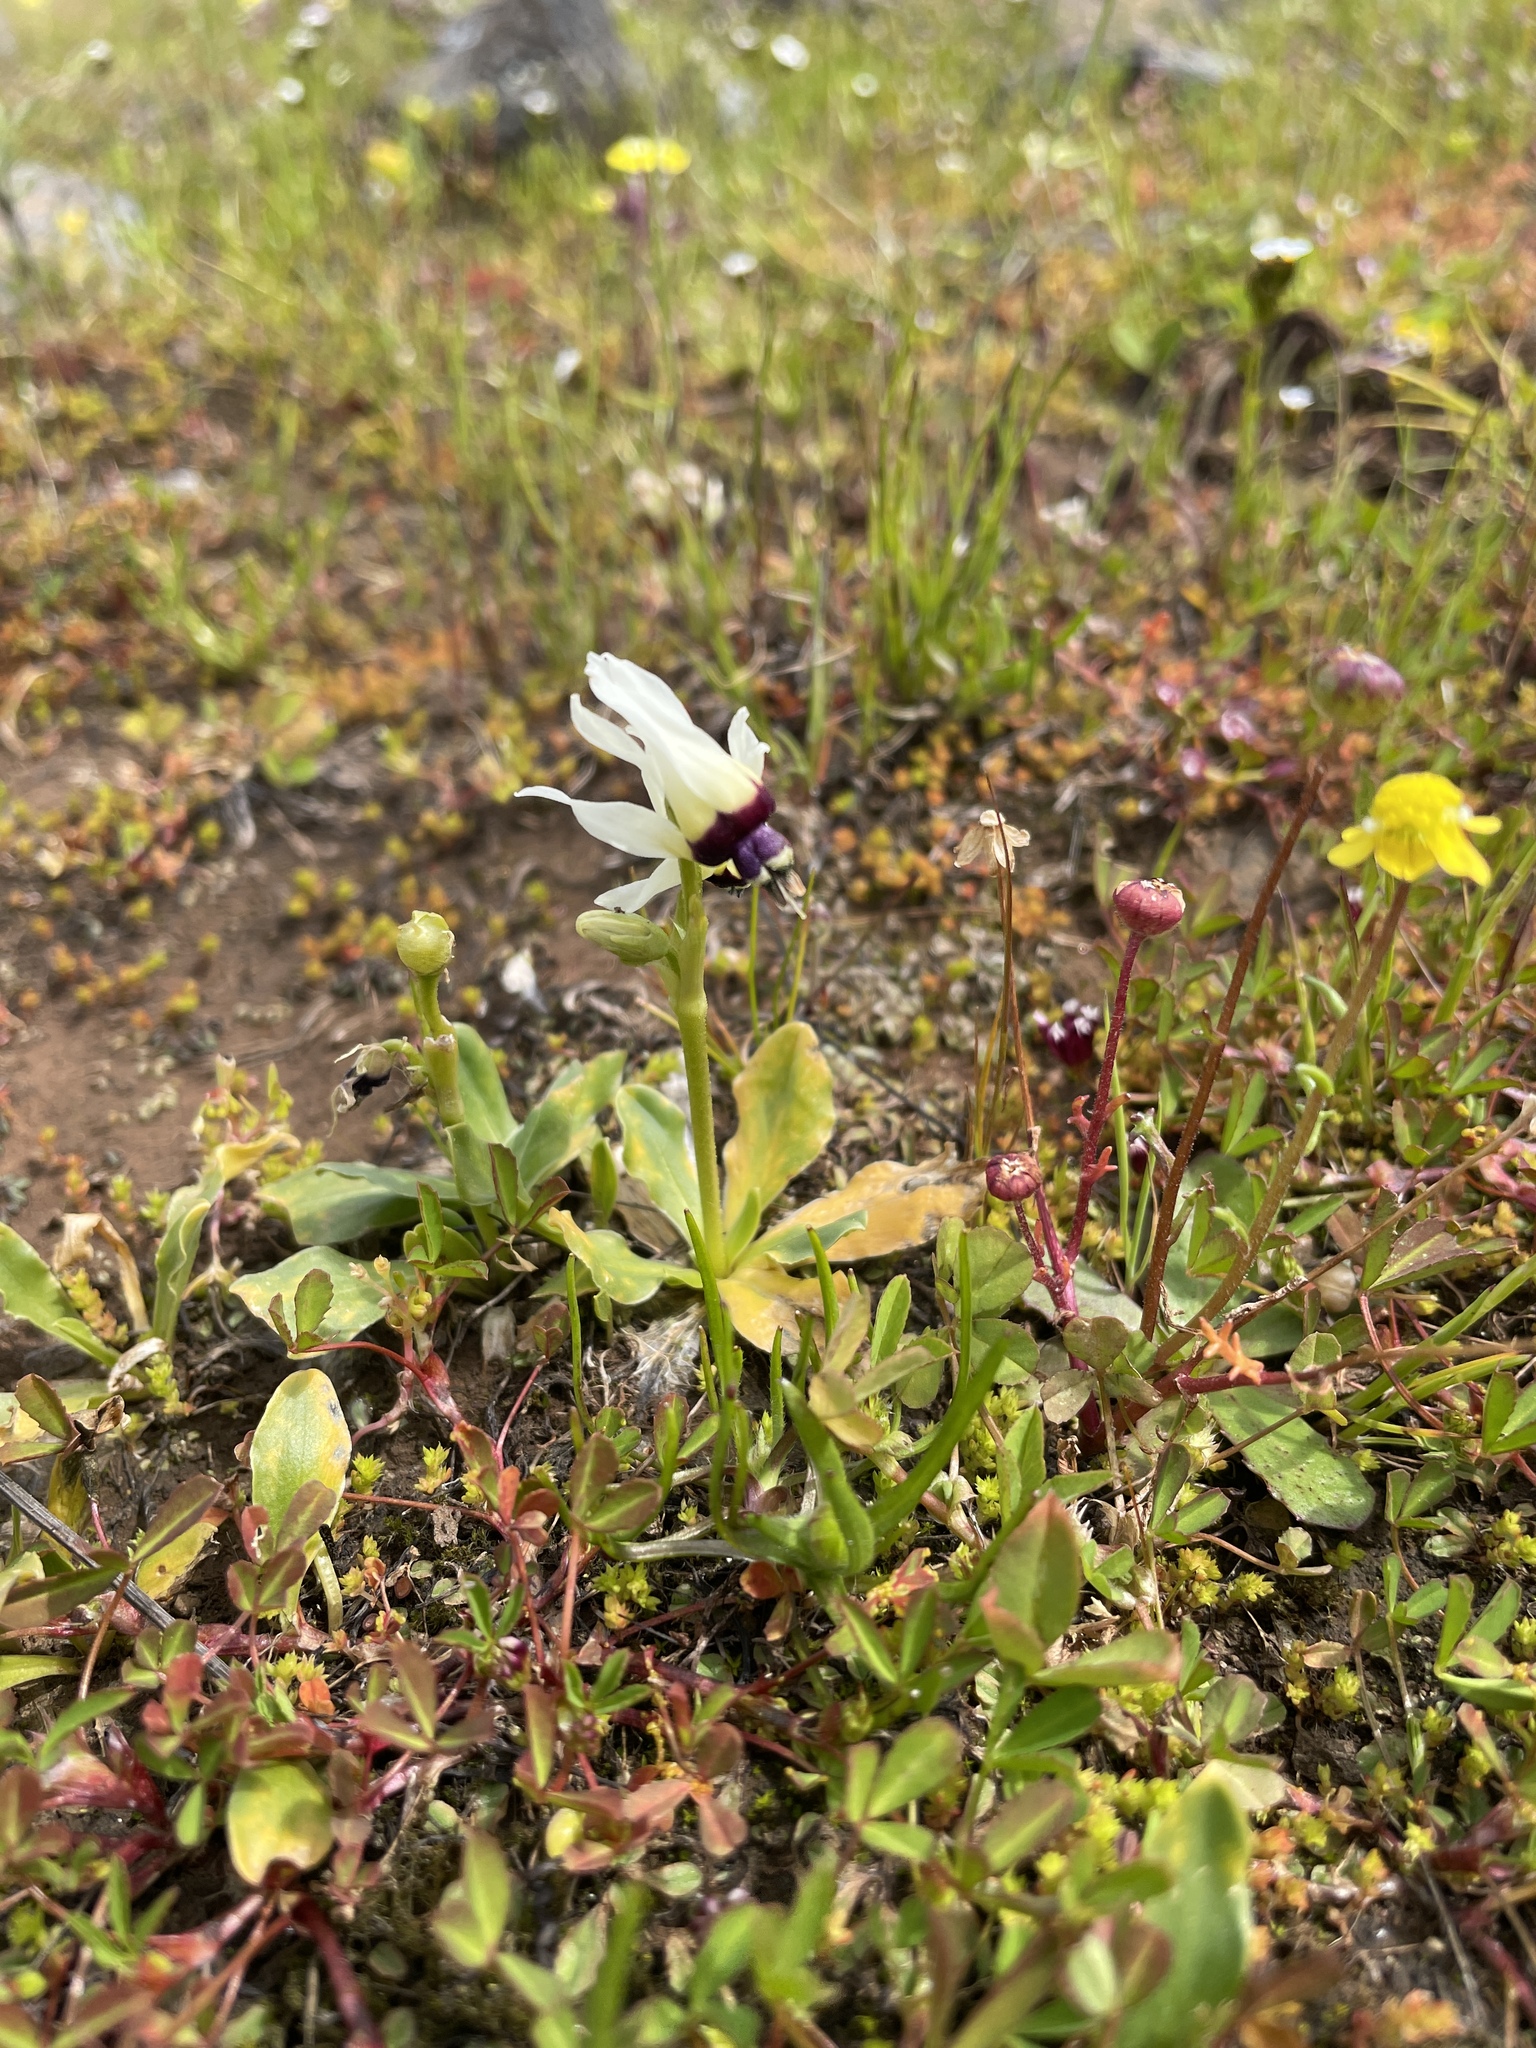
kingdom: Plantae
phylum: Tracheophyta
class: Magnoliopsida
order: Ericales
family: Primulaceae
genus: Dodecatheon
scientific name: Dodecatheon clevelandii
